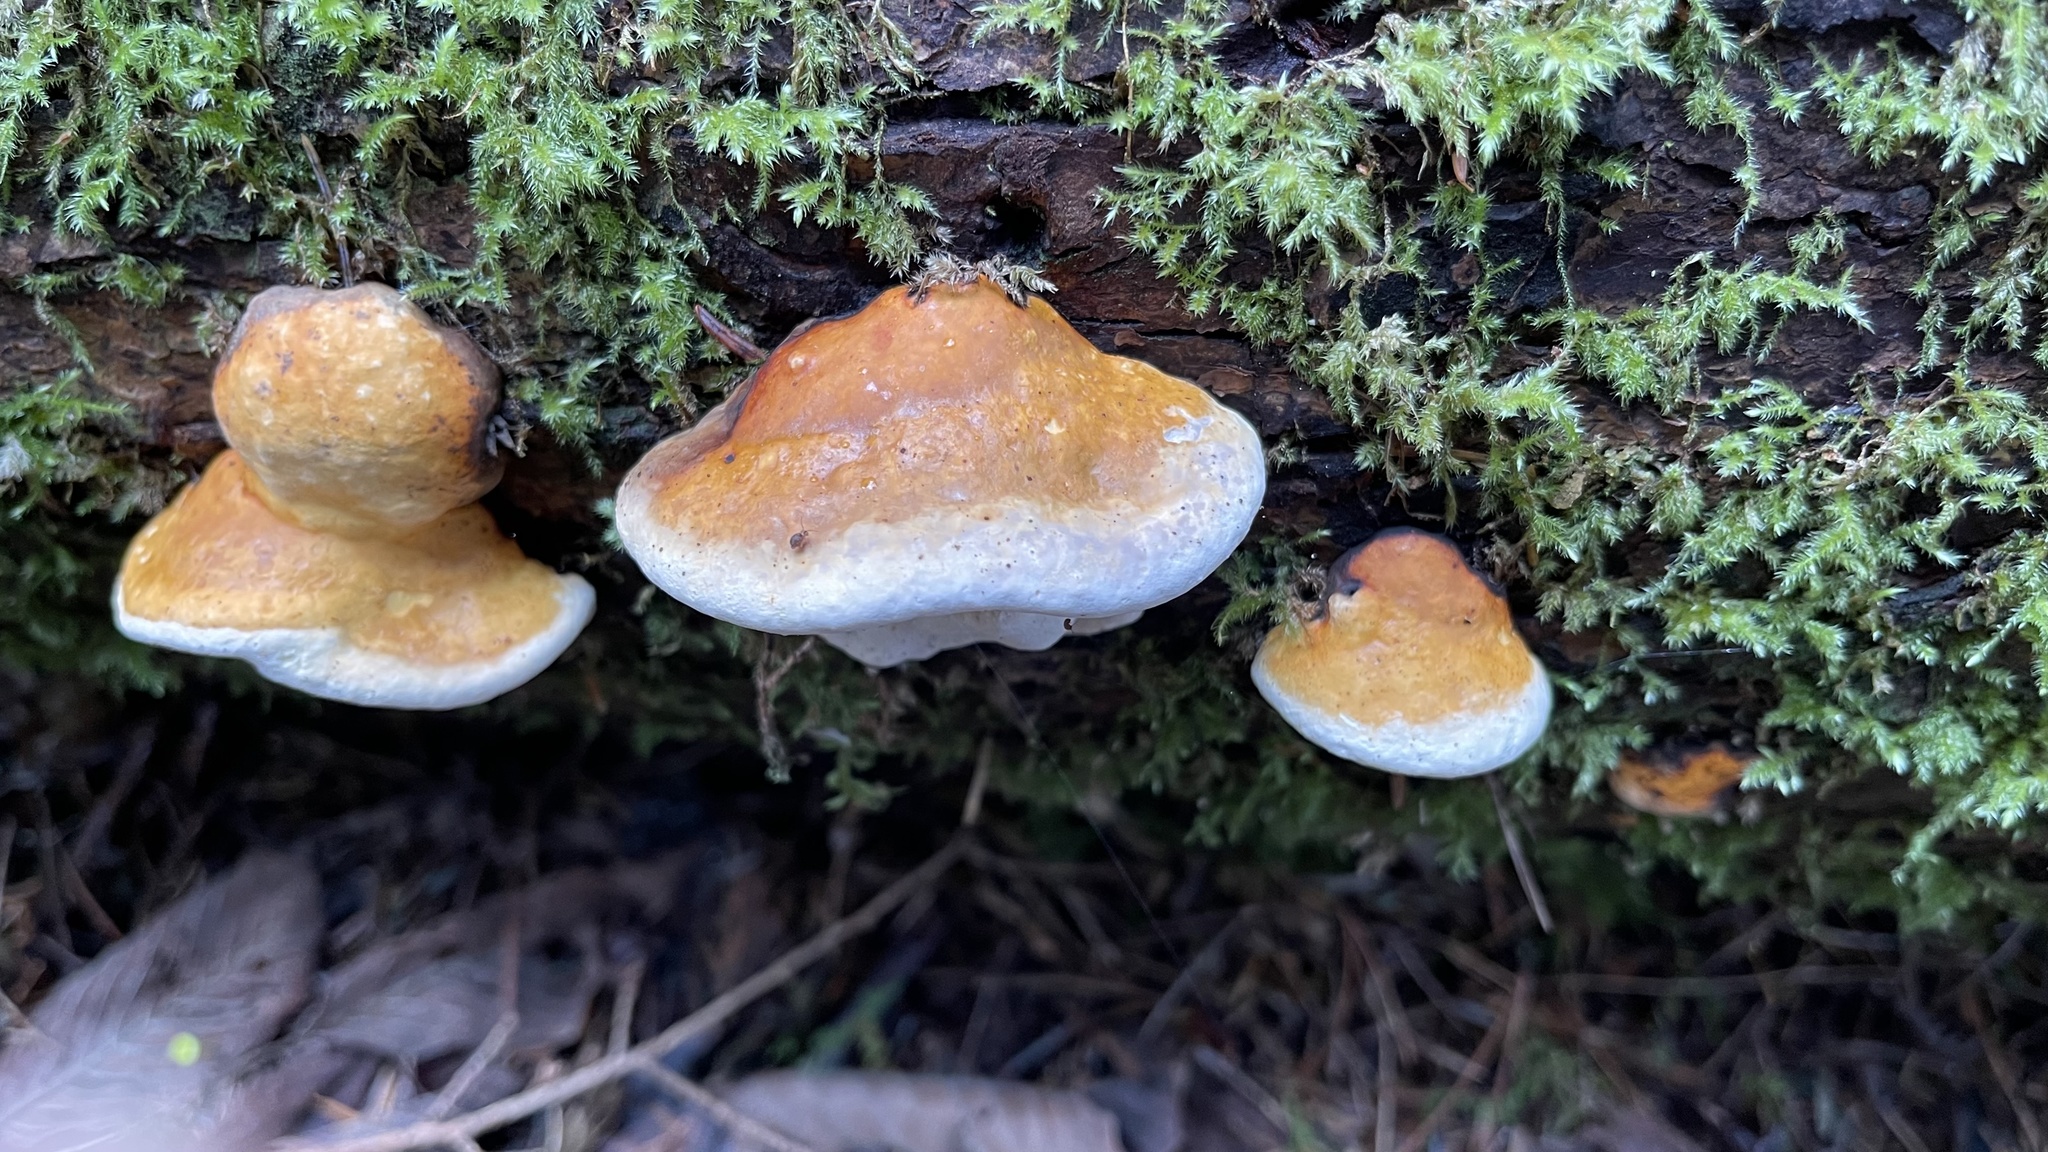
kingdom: Fungi
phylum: Basidiomycota
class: Agaricomycetes
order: Polyporales
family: Fomitopsidaceae
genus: Fomitopsis
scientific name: Fomitopsis mounceae
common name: Northern red belt
